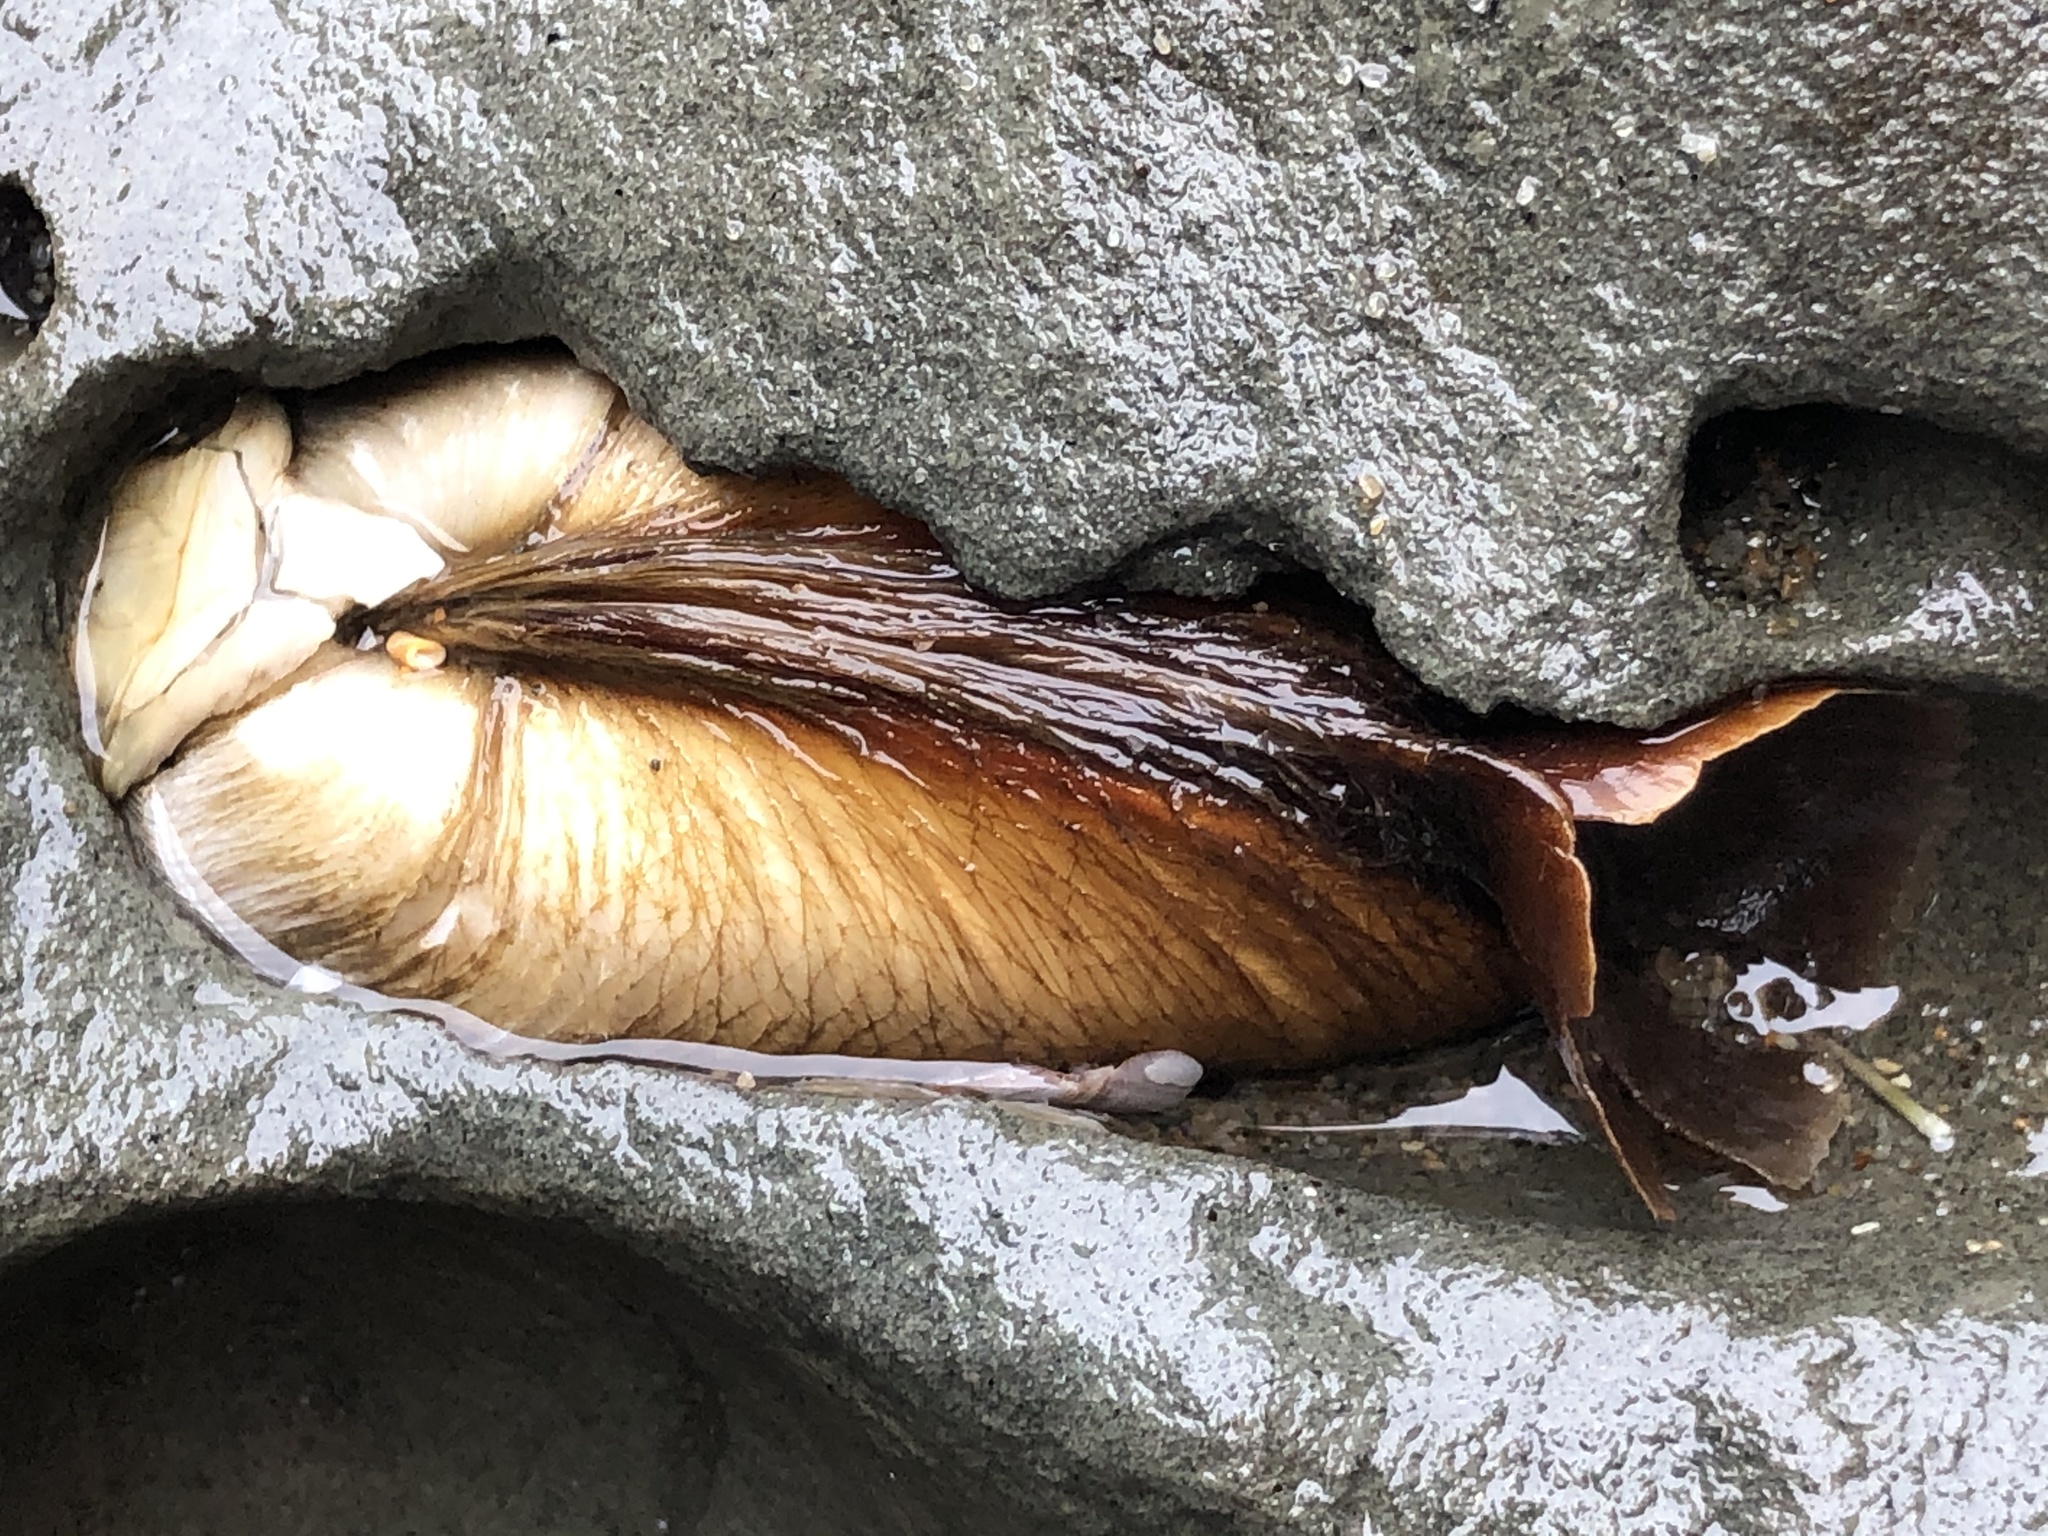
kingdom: Animalia
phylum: Mollusca
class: Bivalvia
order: Myida
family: Pholadidae
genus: Penitella
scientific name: Penitella penita
